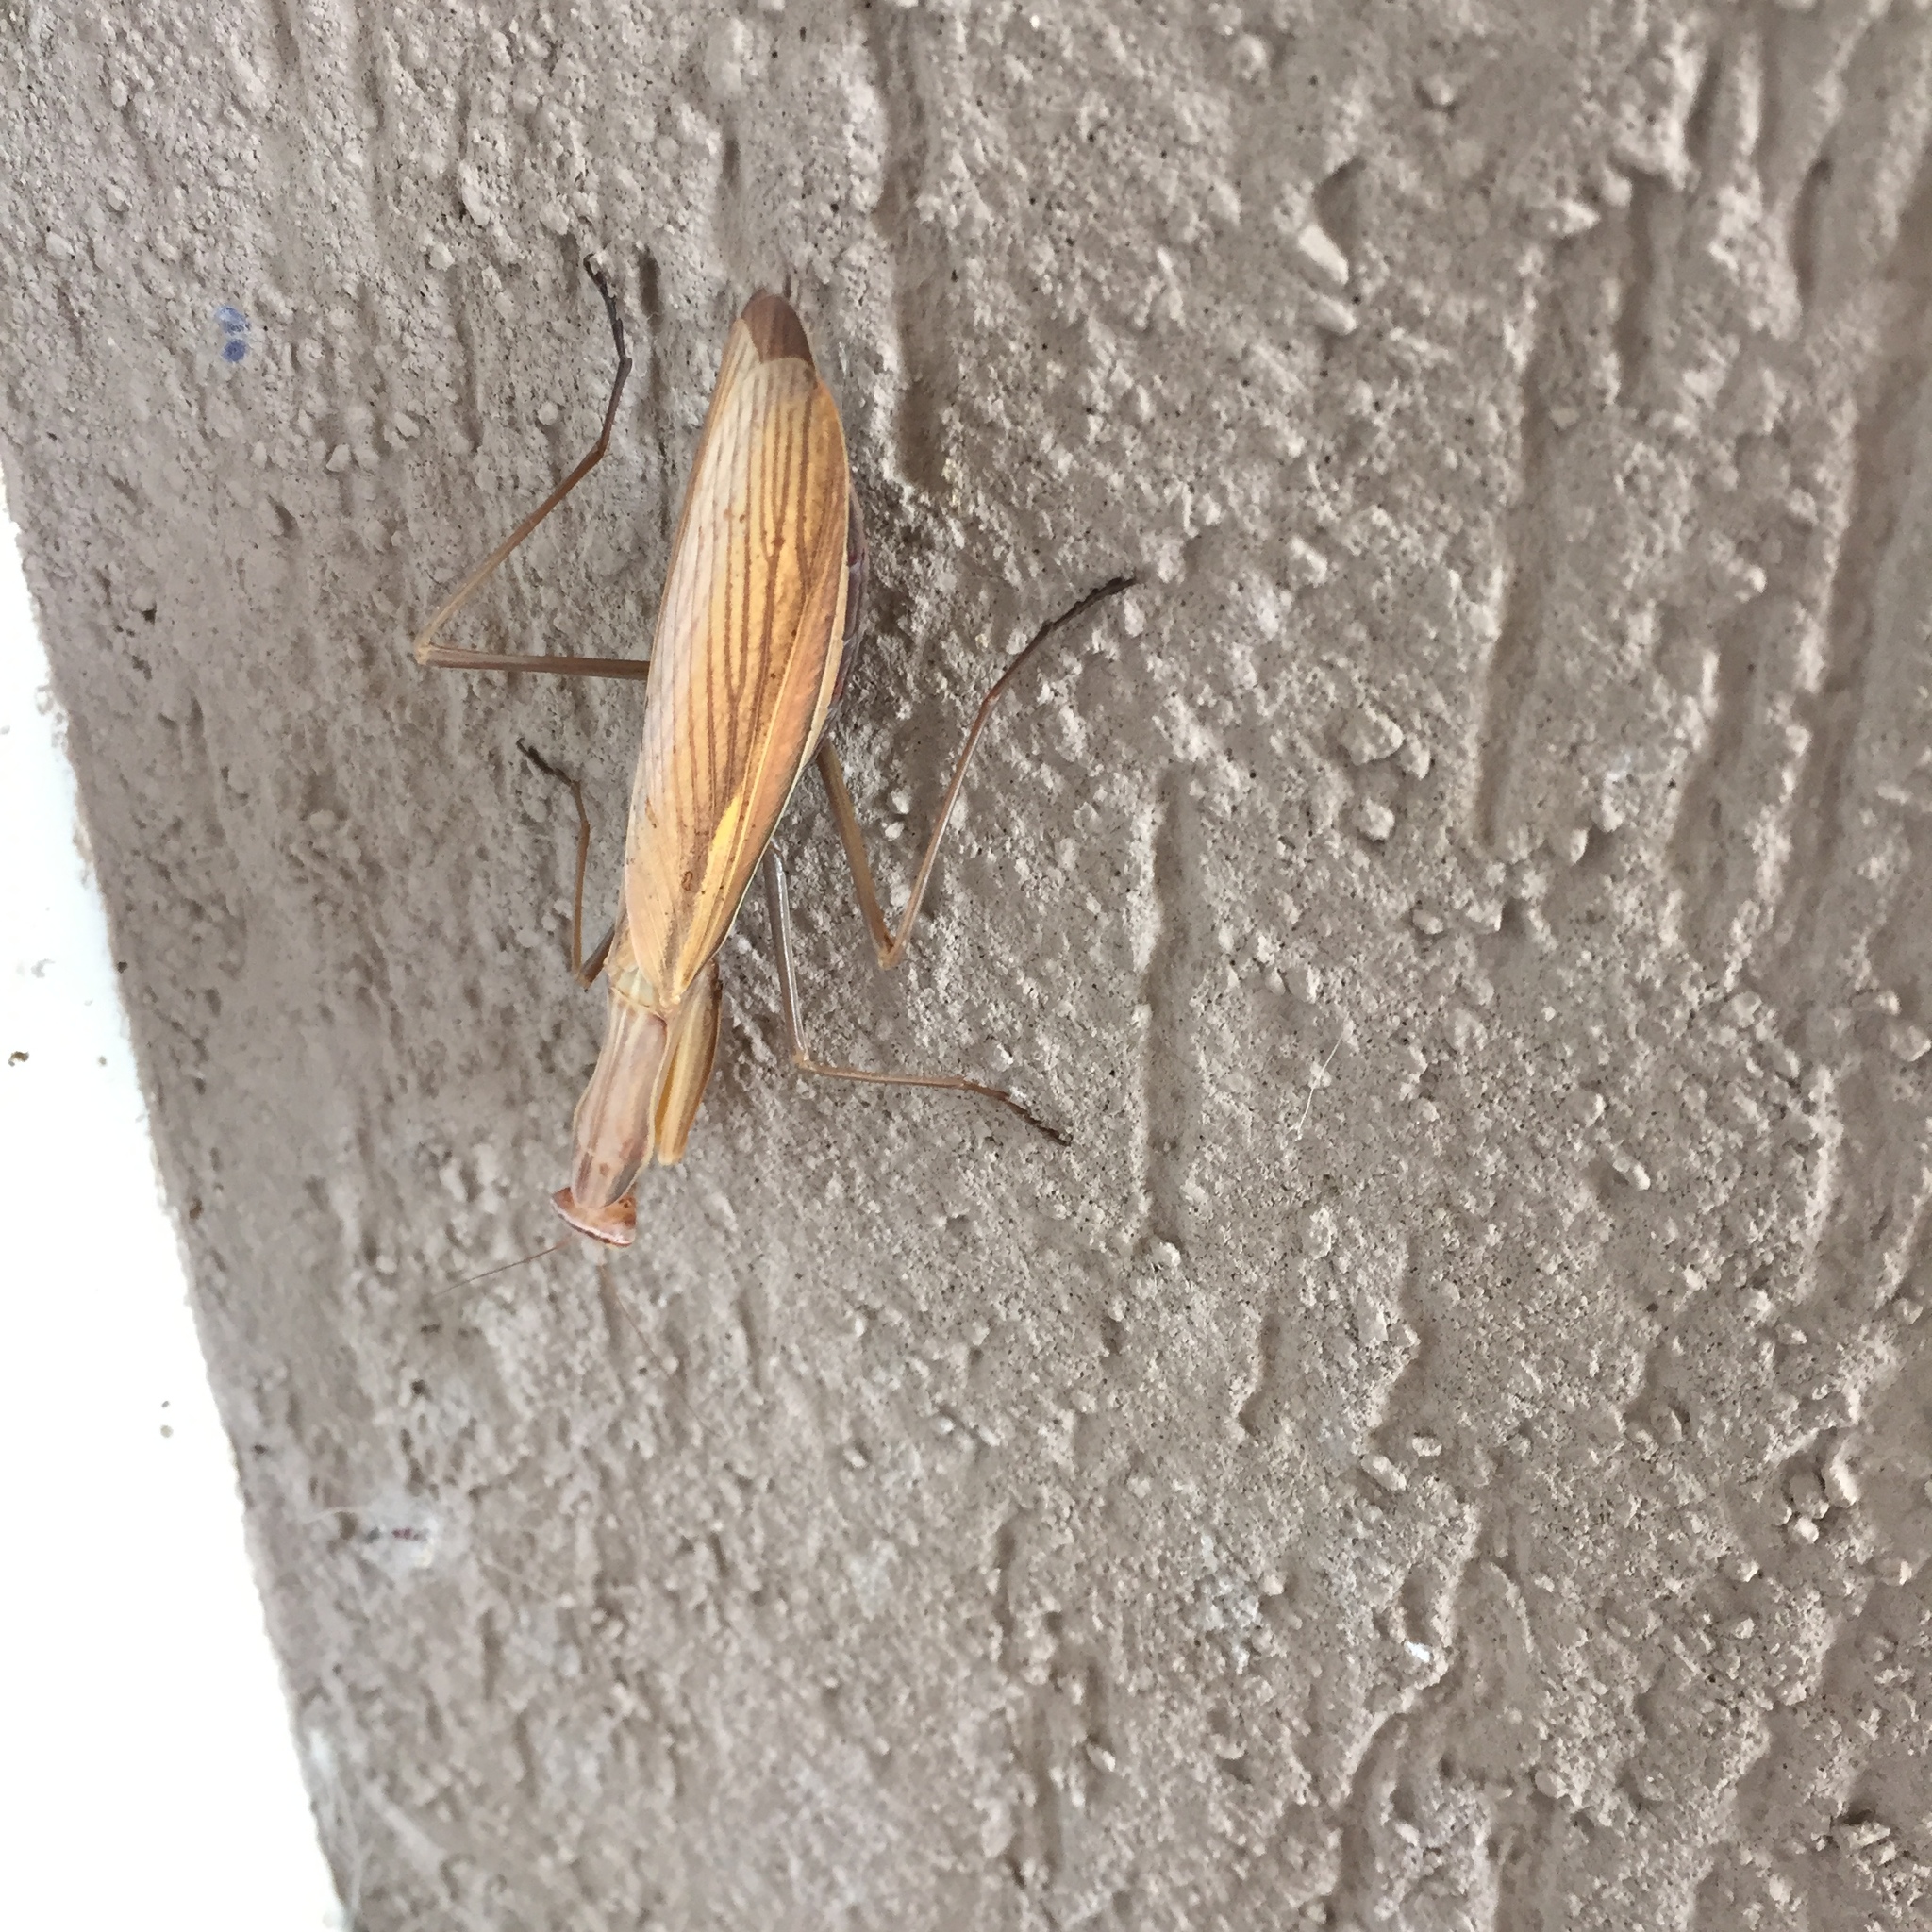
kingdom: Animalia
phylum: Arthropoda
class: Insecta
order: Mantodea
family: Mantidae
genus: Mantis
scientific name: Mantis religiosa
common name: Praying mantis
